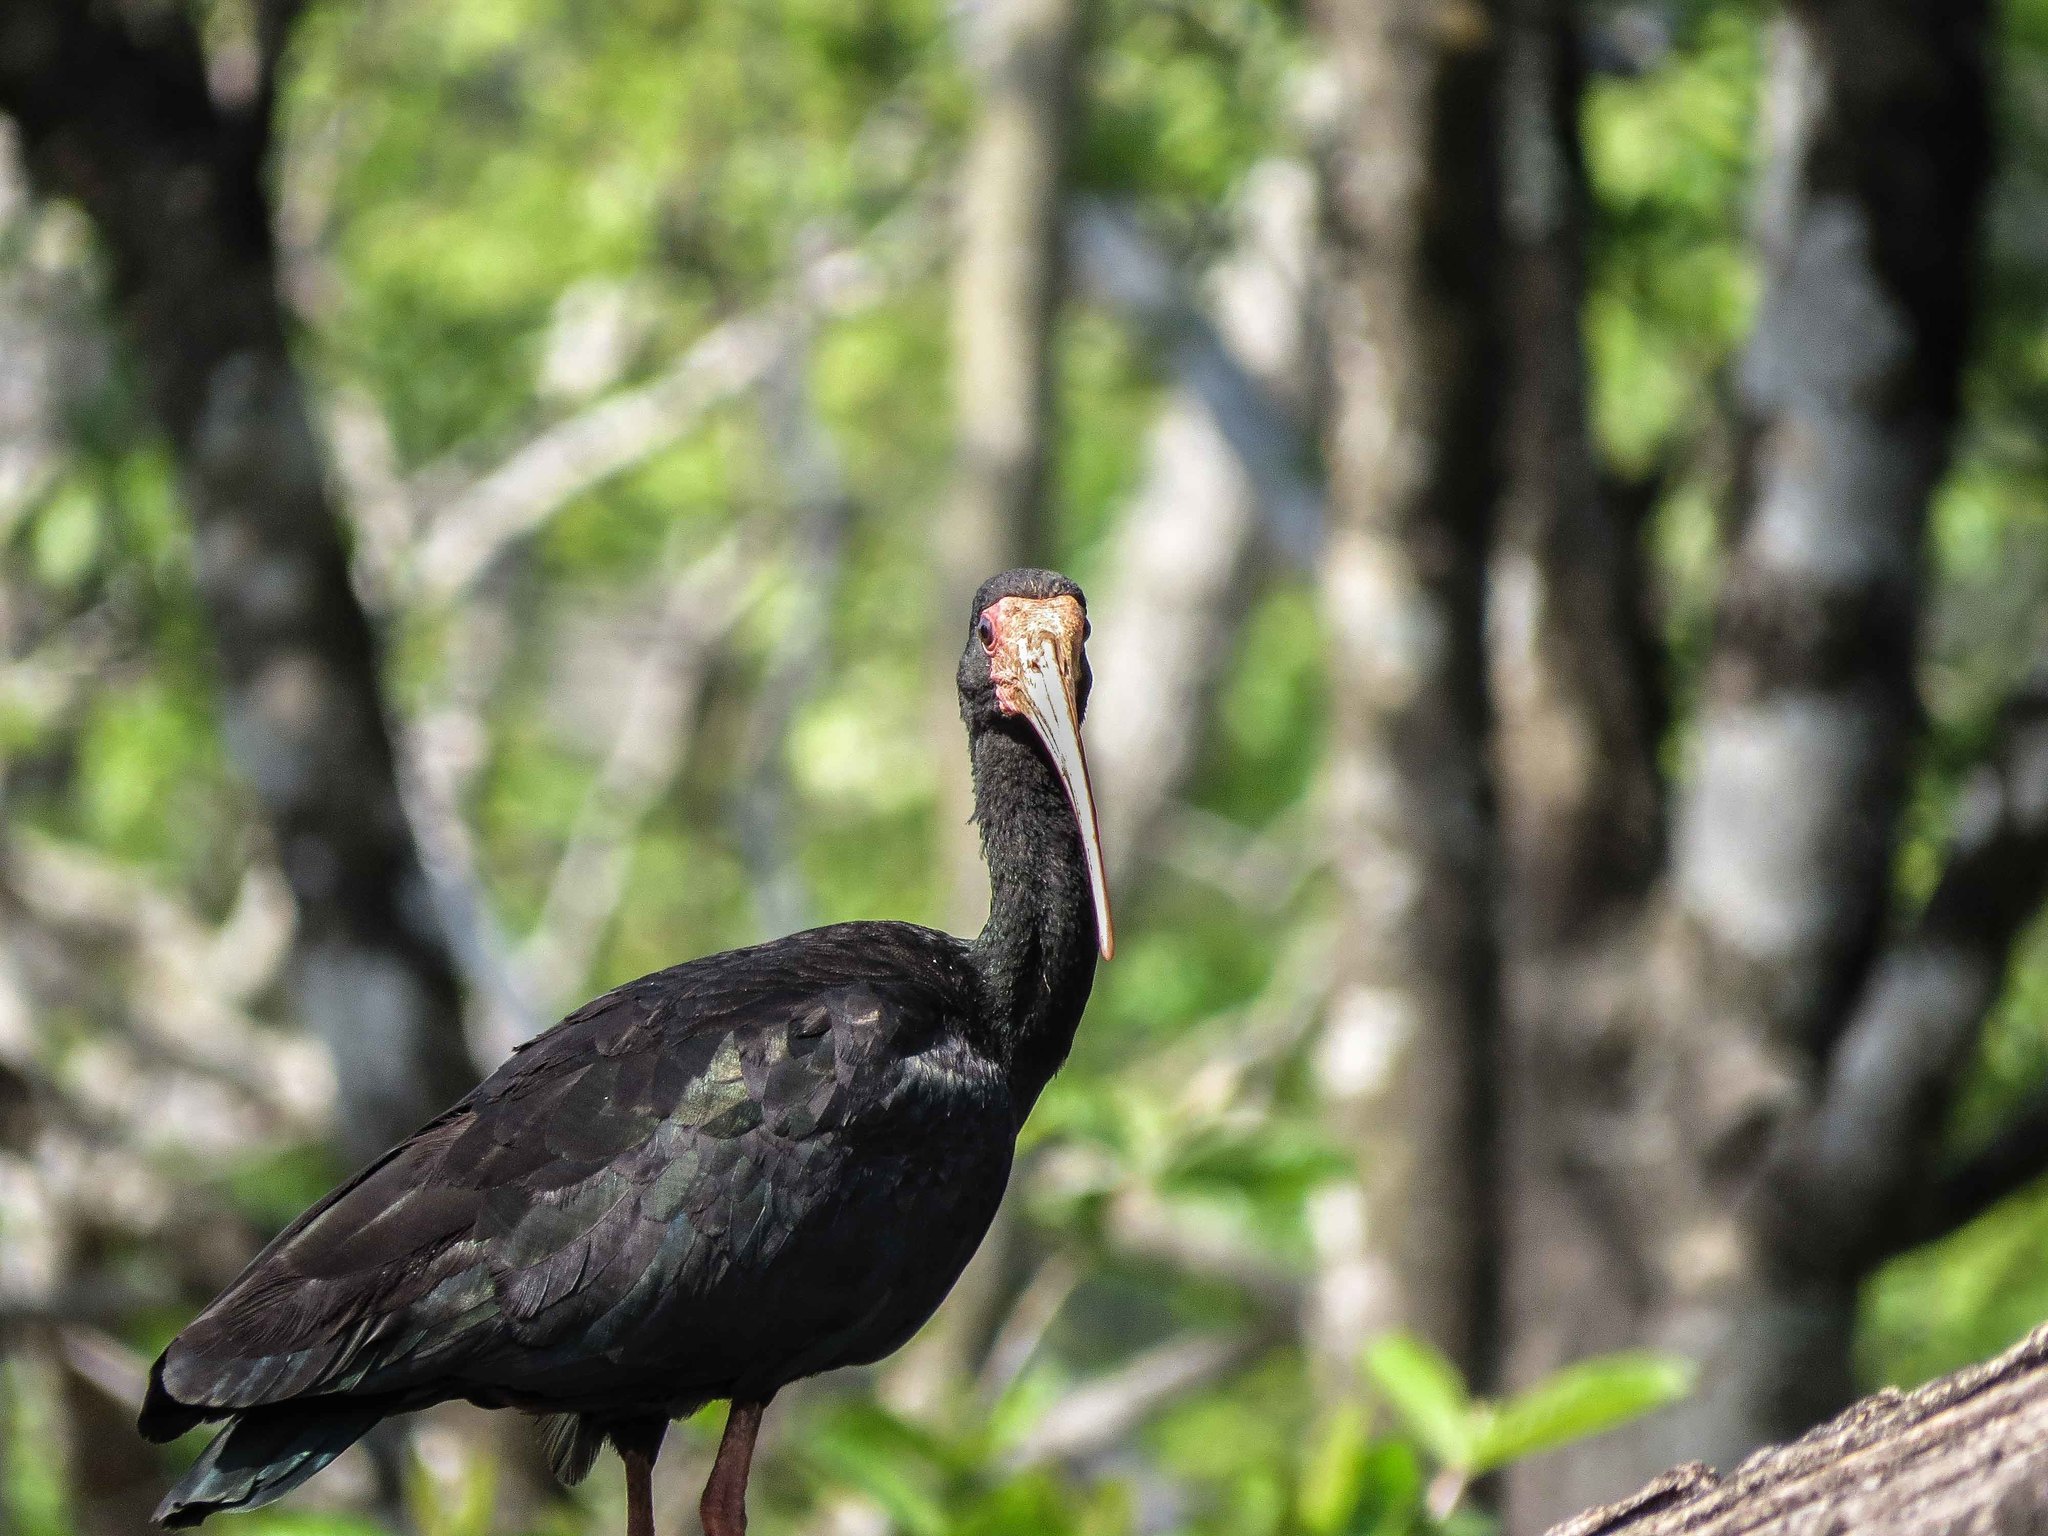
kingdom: Animalia
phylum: Chordata
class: Aves
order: Pelecaniformes
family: Threskiornithidae
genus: Phimosus
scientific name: Phimosus infuscatus
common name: Bare-faced ibis
